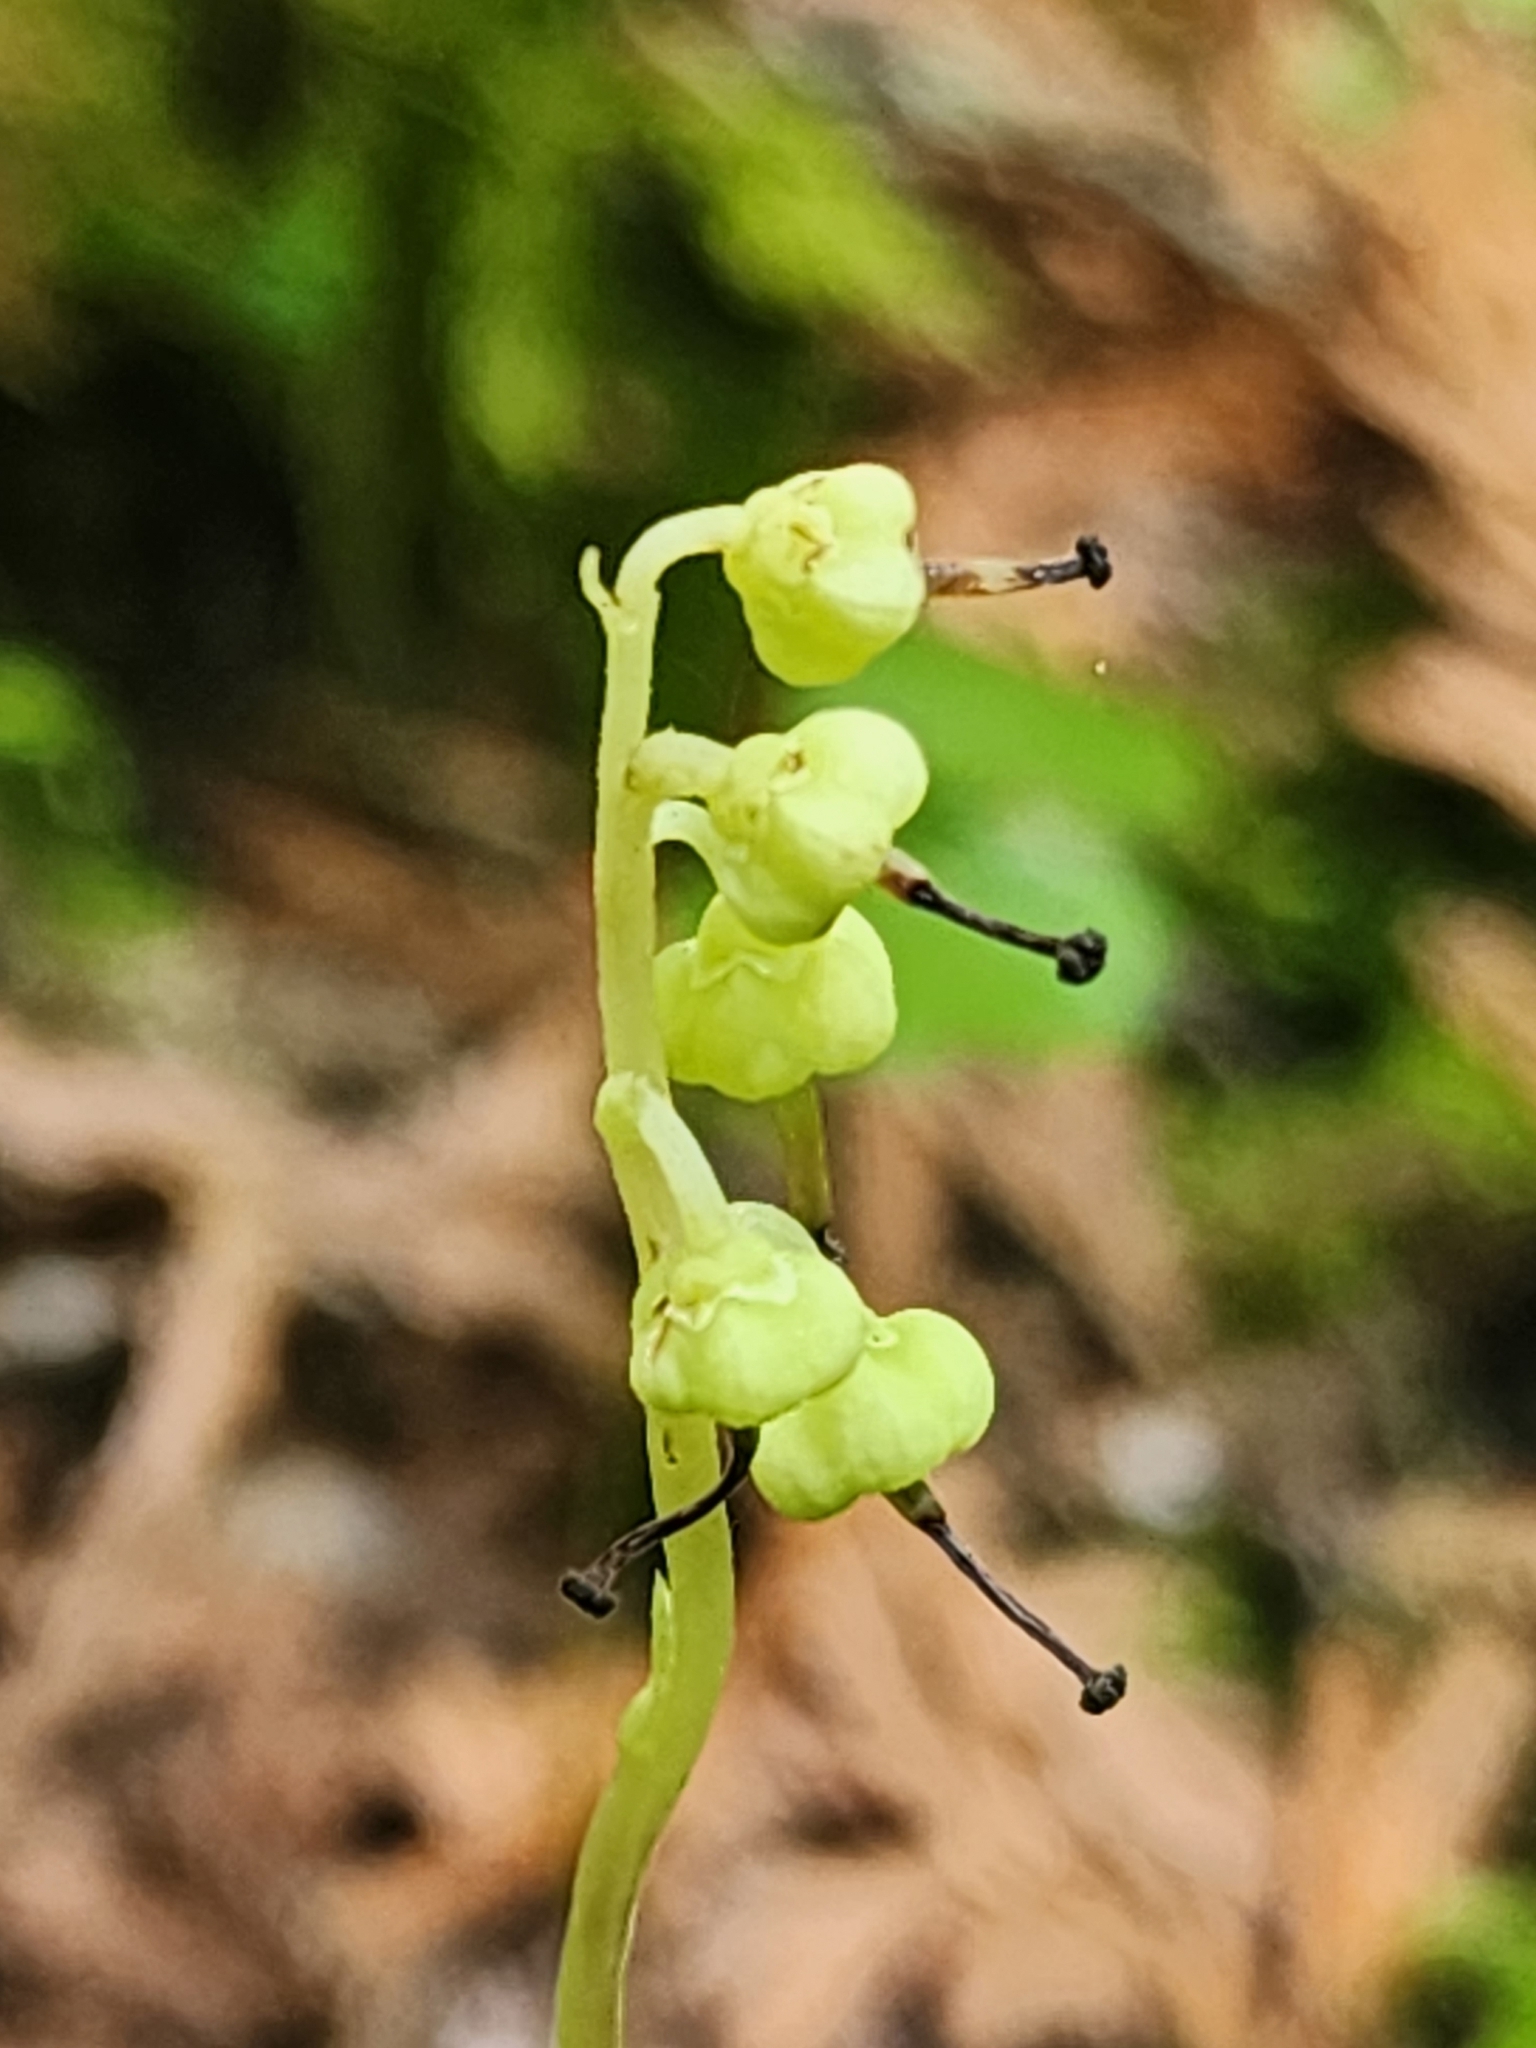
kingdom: Plantae
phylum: Tracheophyta
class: Magnoliopsida
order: Ericales
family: Ericaceae
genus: Orthilia
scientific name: Orthilia secunda
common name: One-sided orthilia
